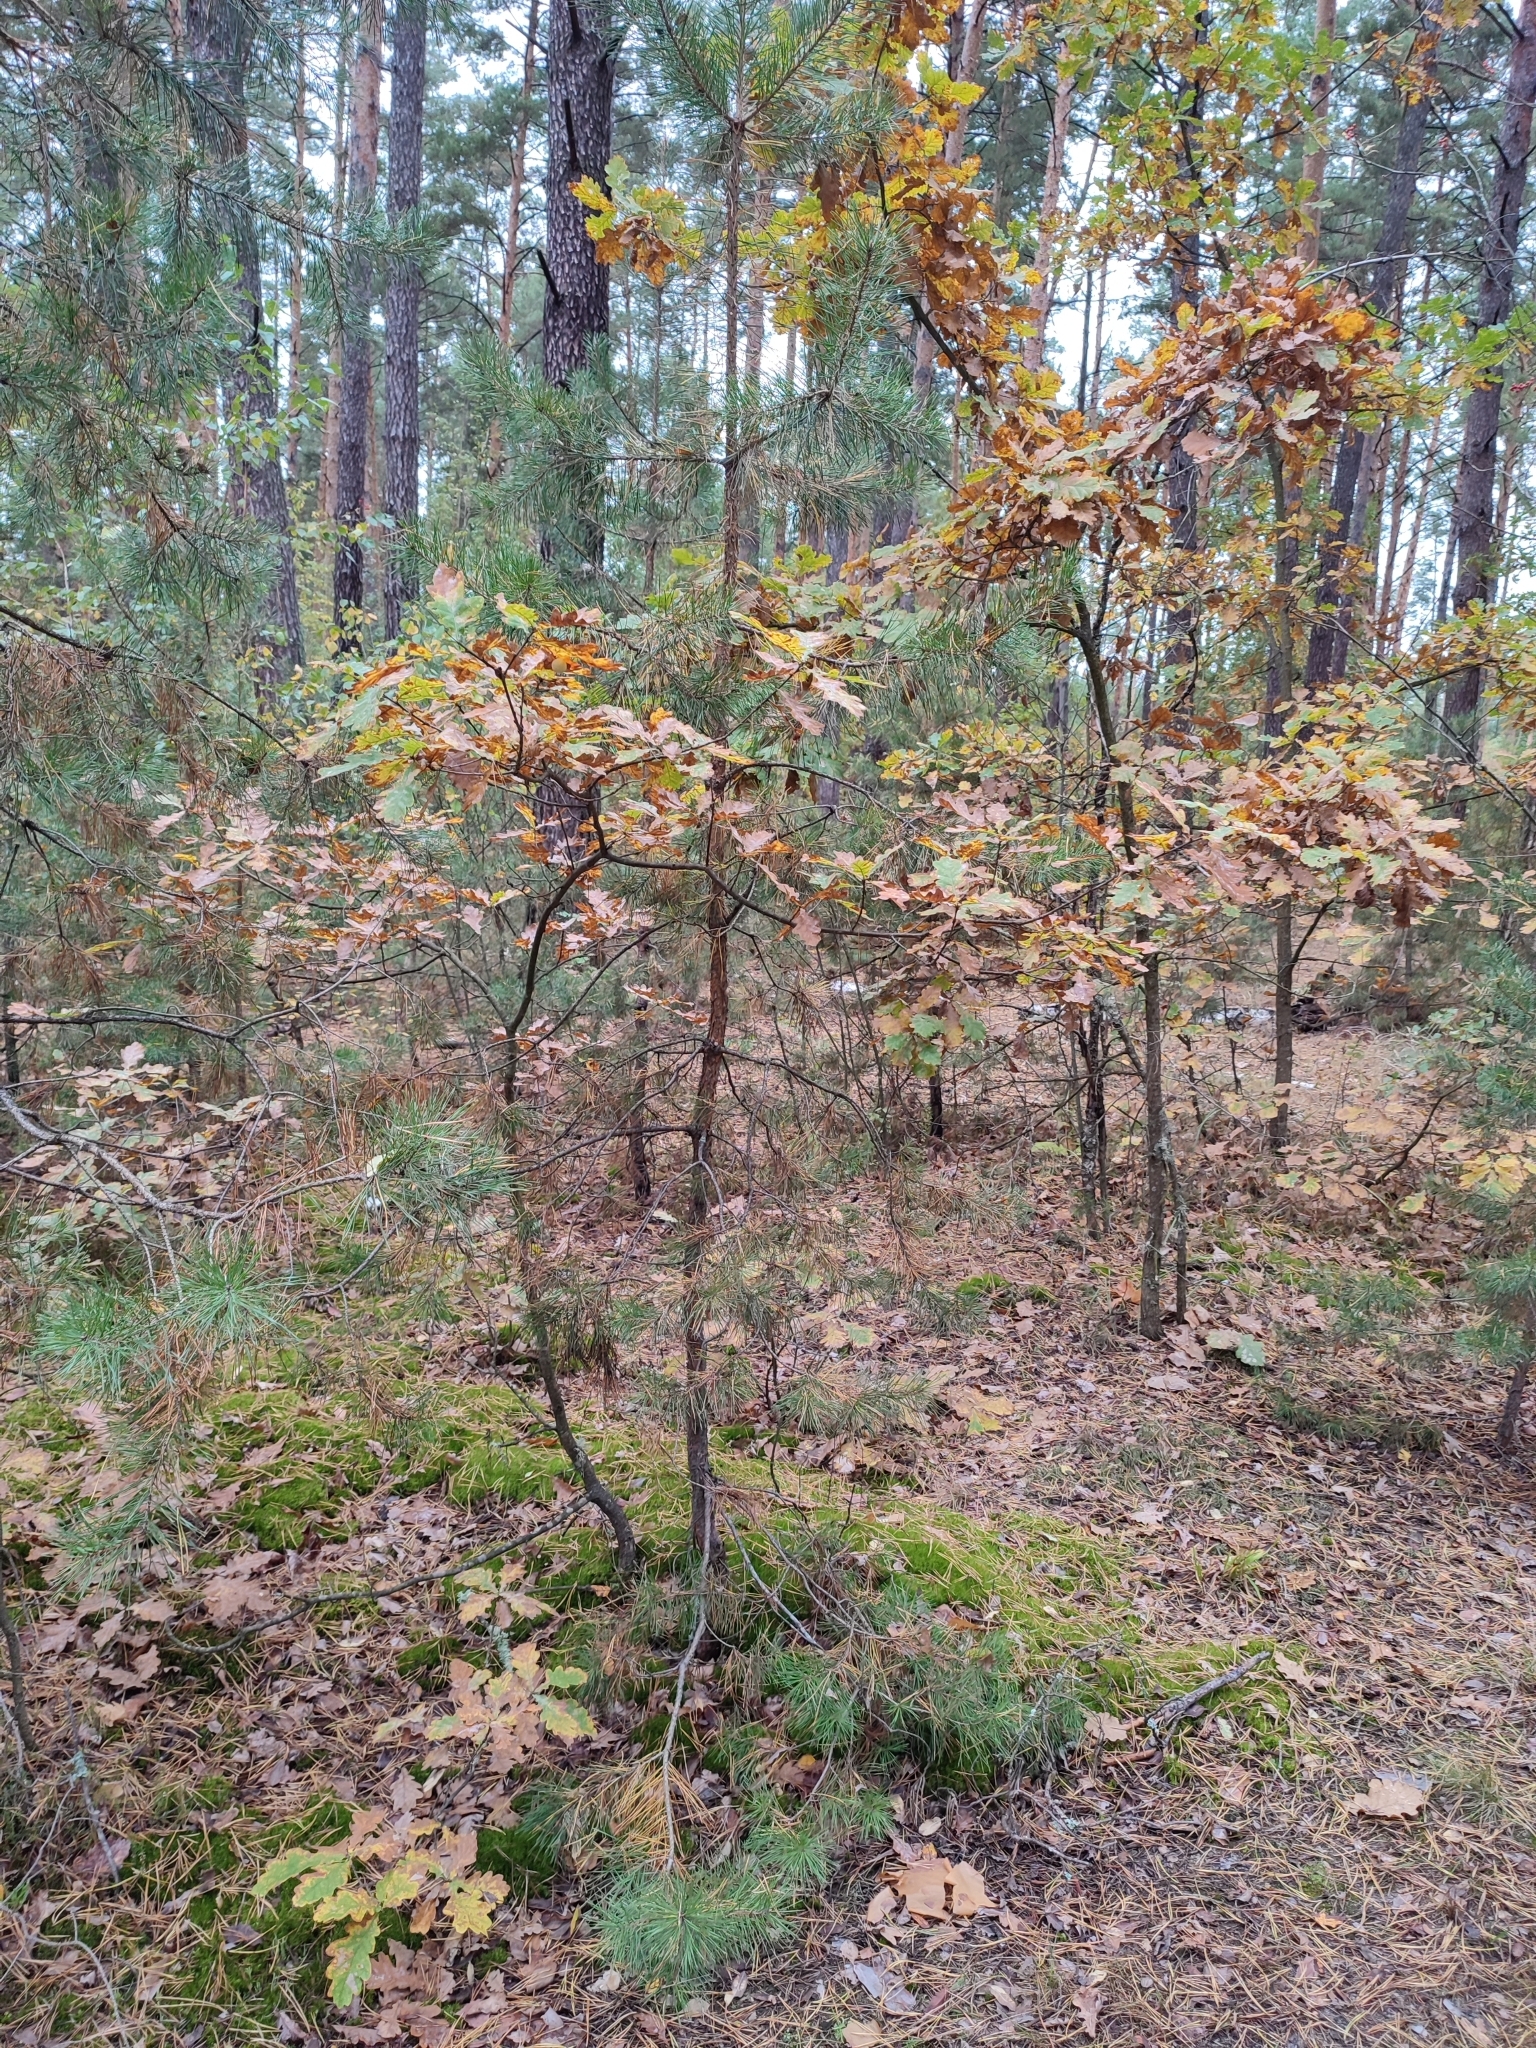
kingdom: Plantae
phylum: Tracheophyta
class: Magnoliopsida
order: Fagales
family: Fagaceae
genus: Quercus
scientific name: Quercus robur
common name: Pedunculate oak
